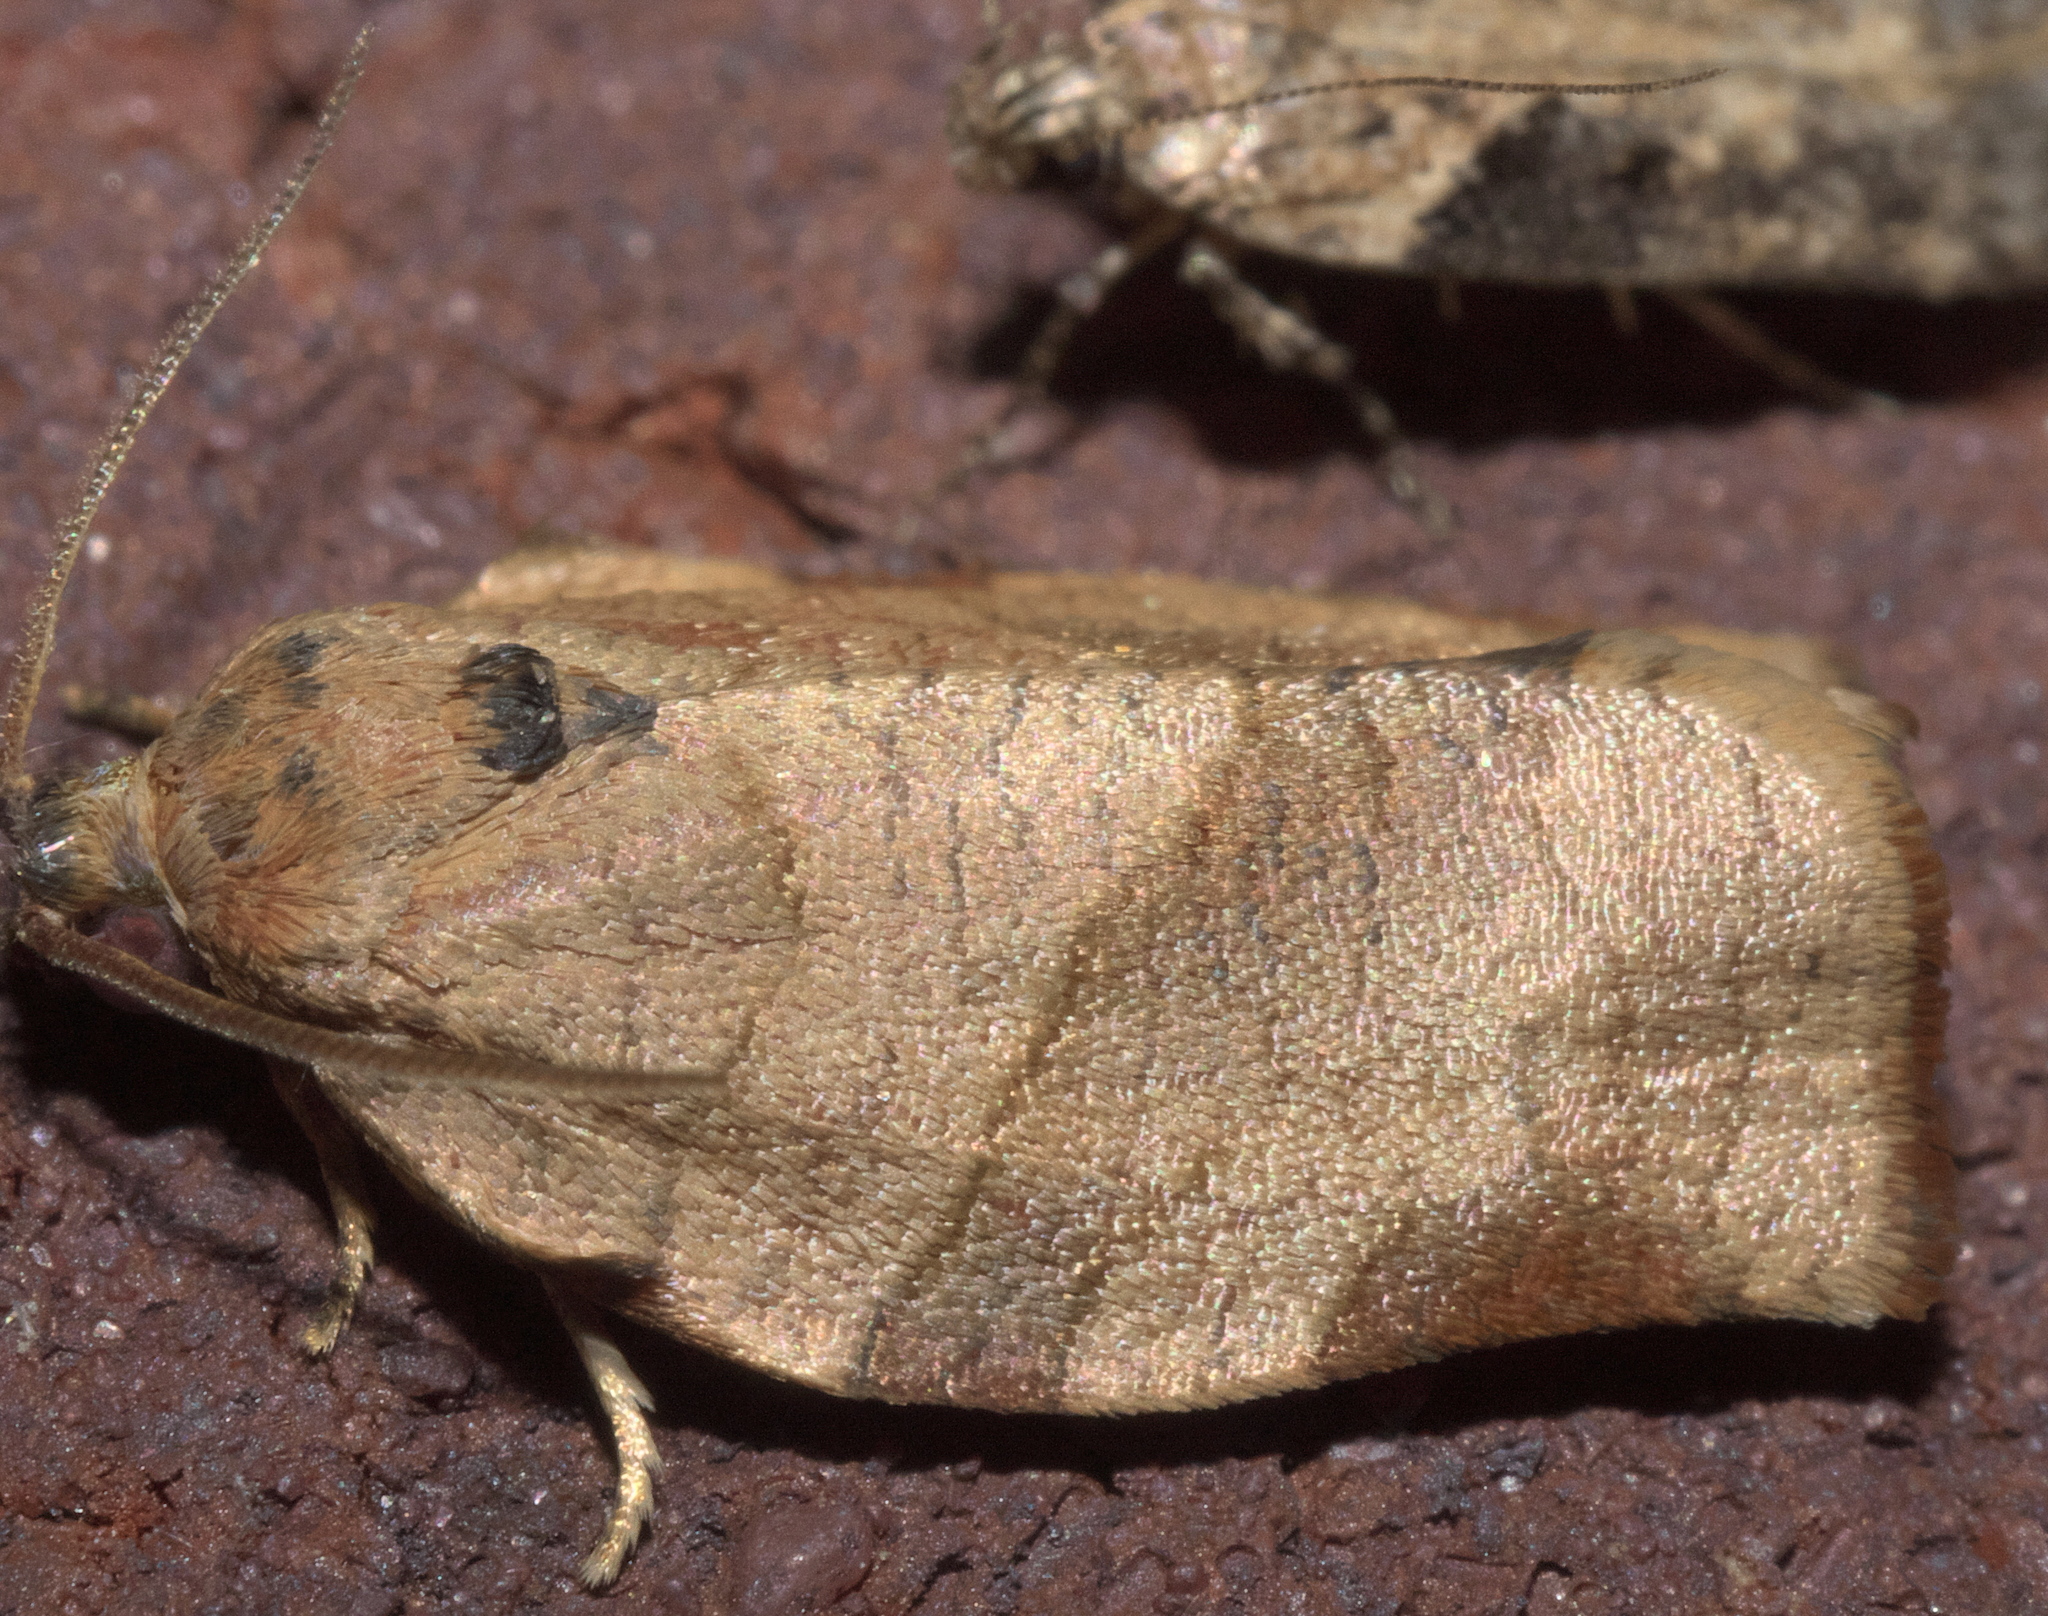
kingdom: Animalia
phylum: Arthropoda
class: Insecta
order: Lepidoptera
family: Tortricidae
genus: Choristoneura
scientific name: Choristoneura rosaceana
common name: Oblique-banded leafroller moth
